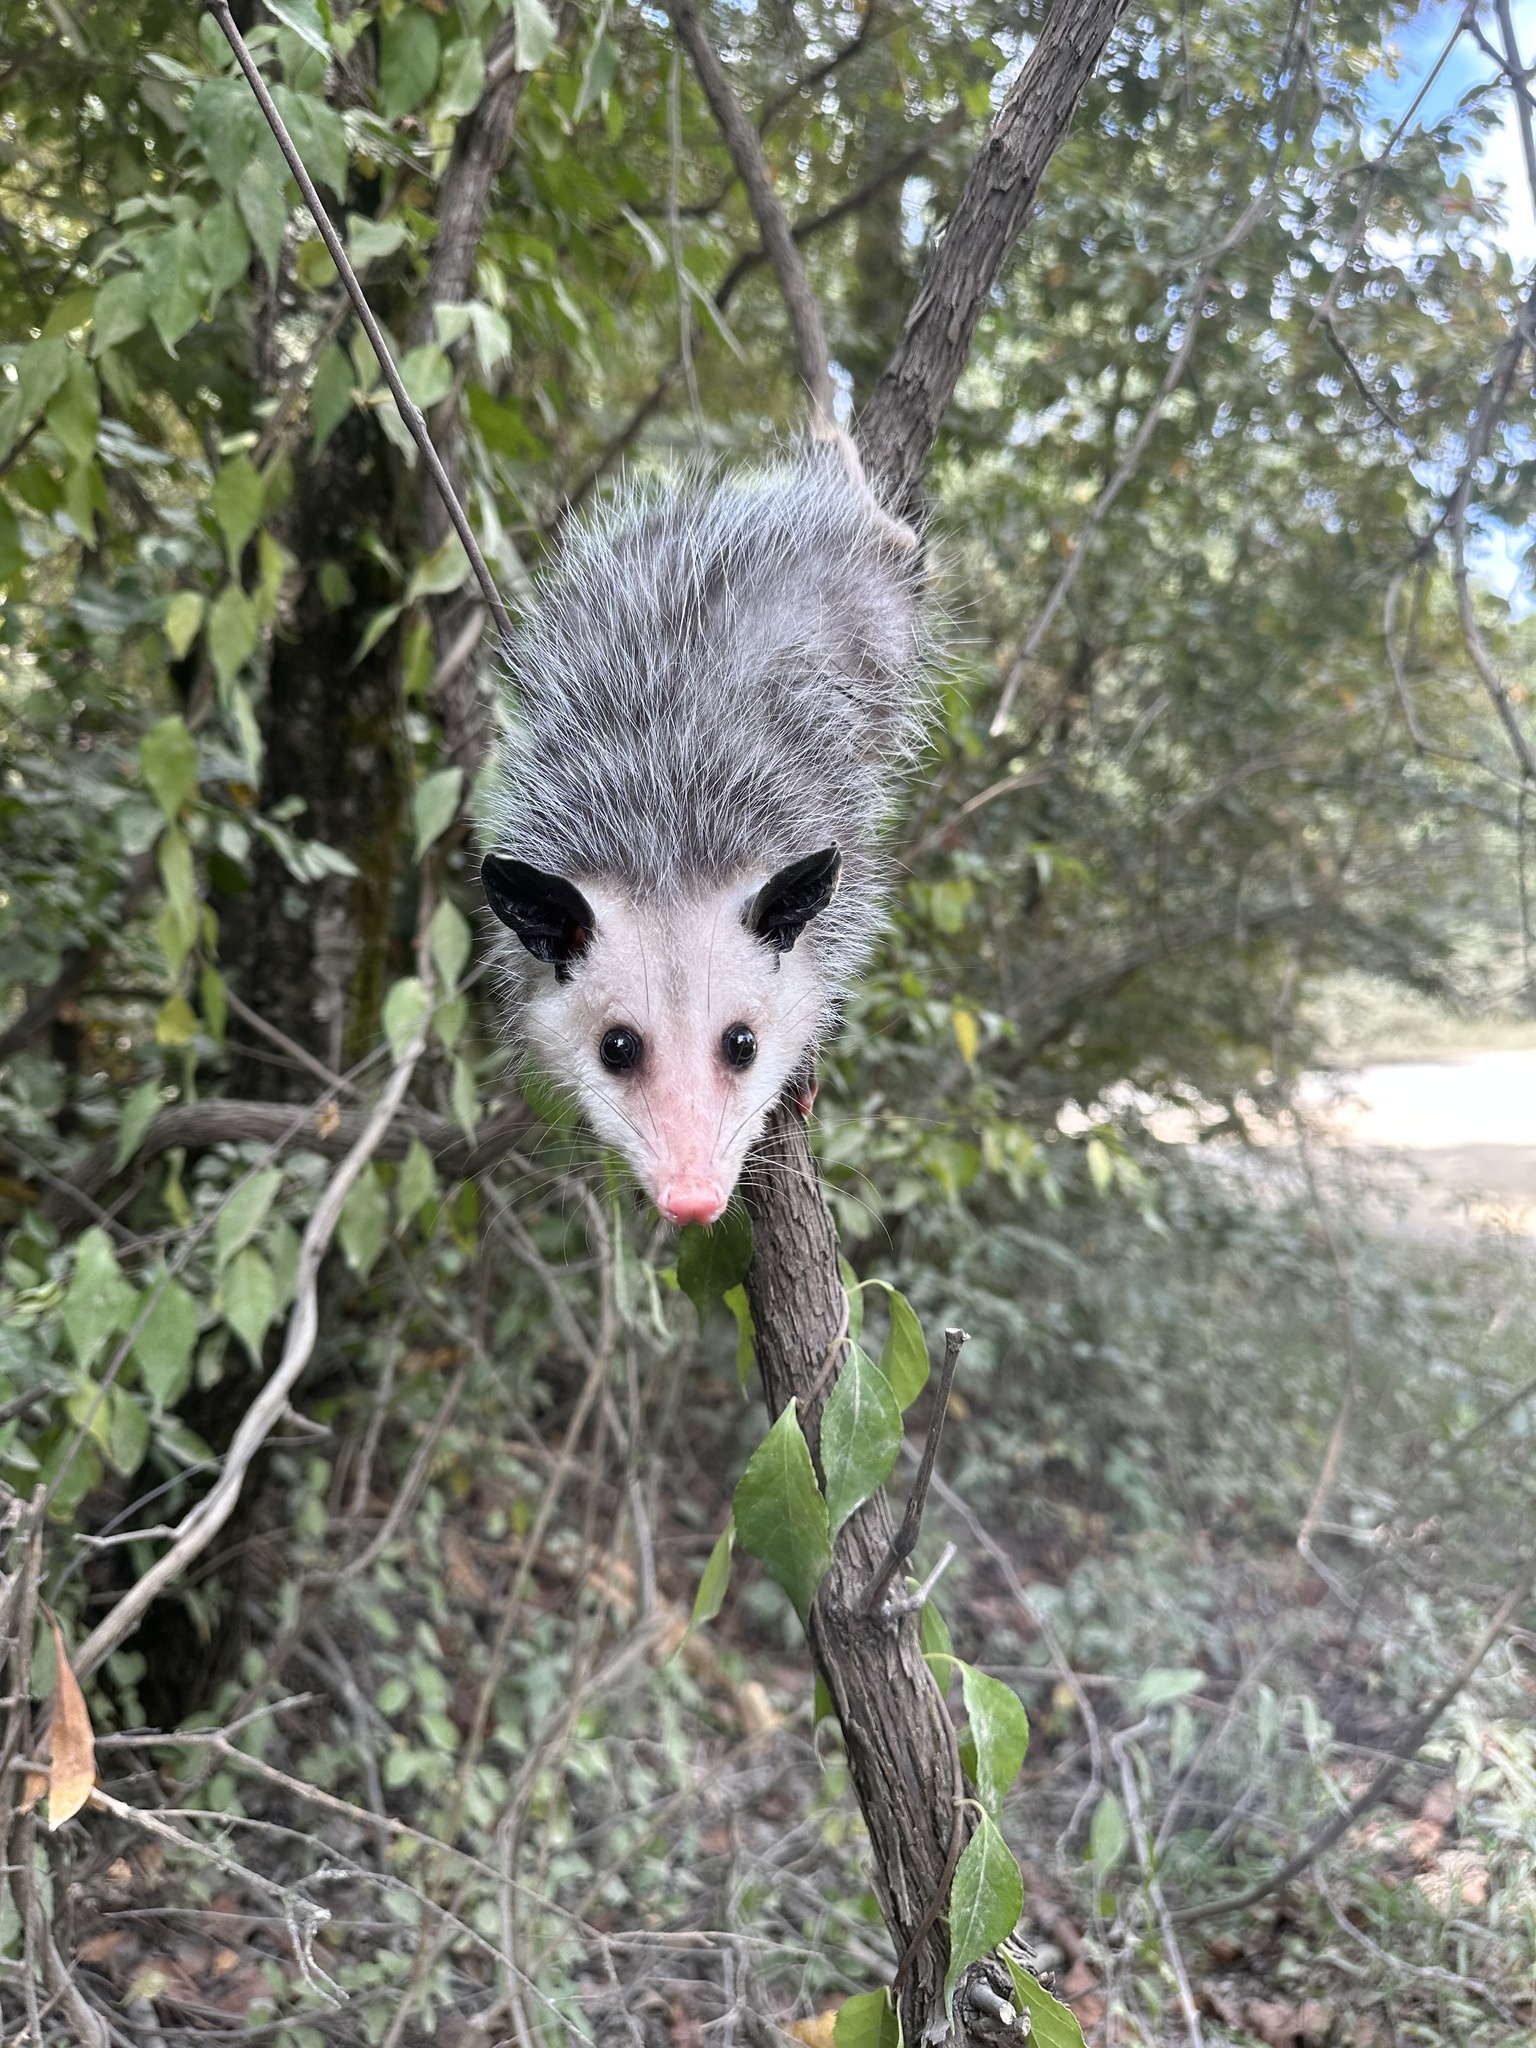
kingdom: Animalia
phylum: Chordata
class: Mammalia
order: Didelphimorphia
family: Didelphidae
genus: Didelphis
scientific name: Didelphis virginiana
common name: Virginia opossum
